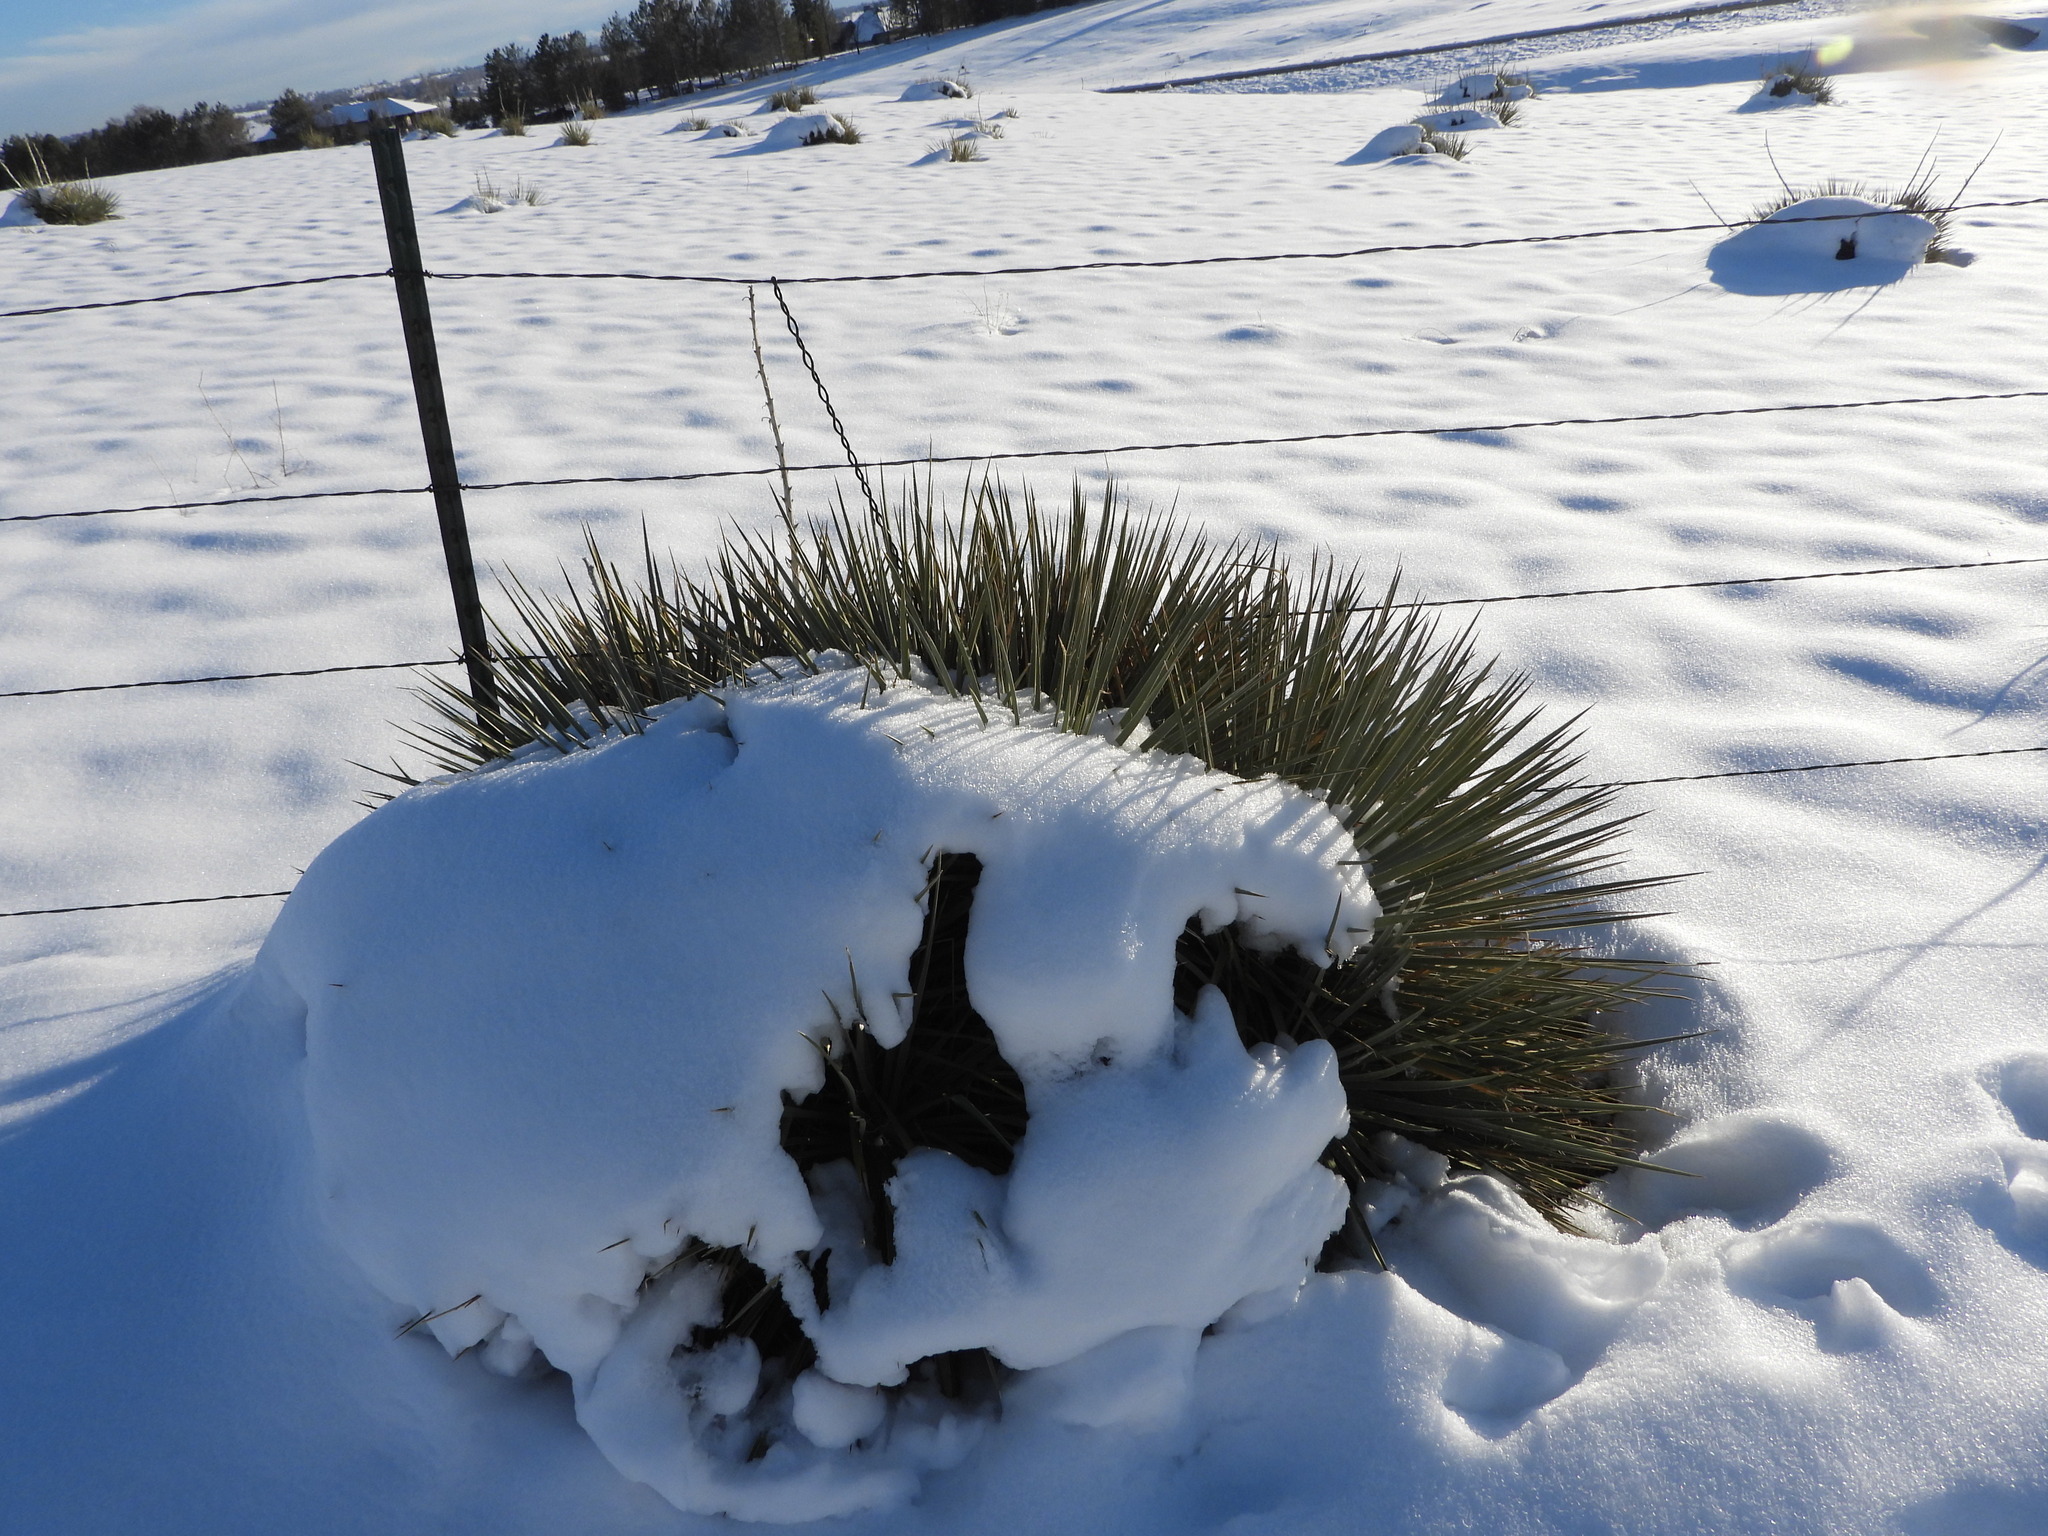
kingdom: Plantae
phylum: Tracheophyta
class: Liliopsida
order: Asparagales
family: Asparagaceae
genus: Yucca
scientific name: Yucca glauca
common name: Great plains yucca
